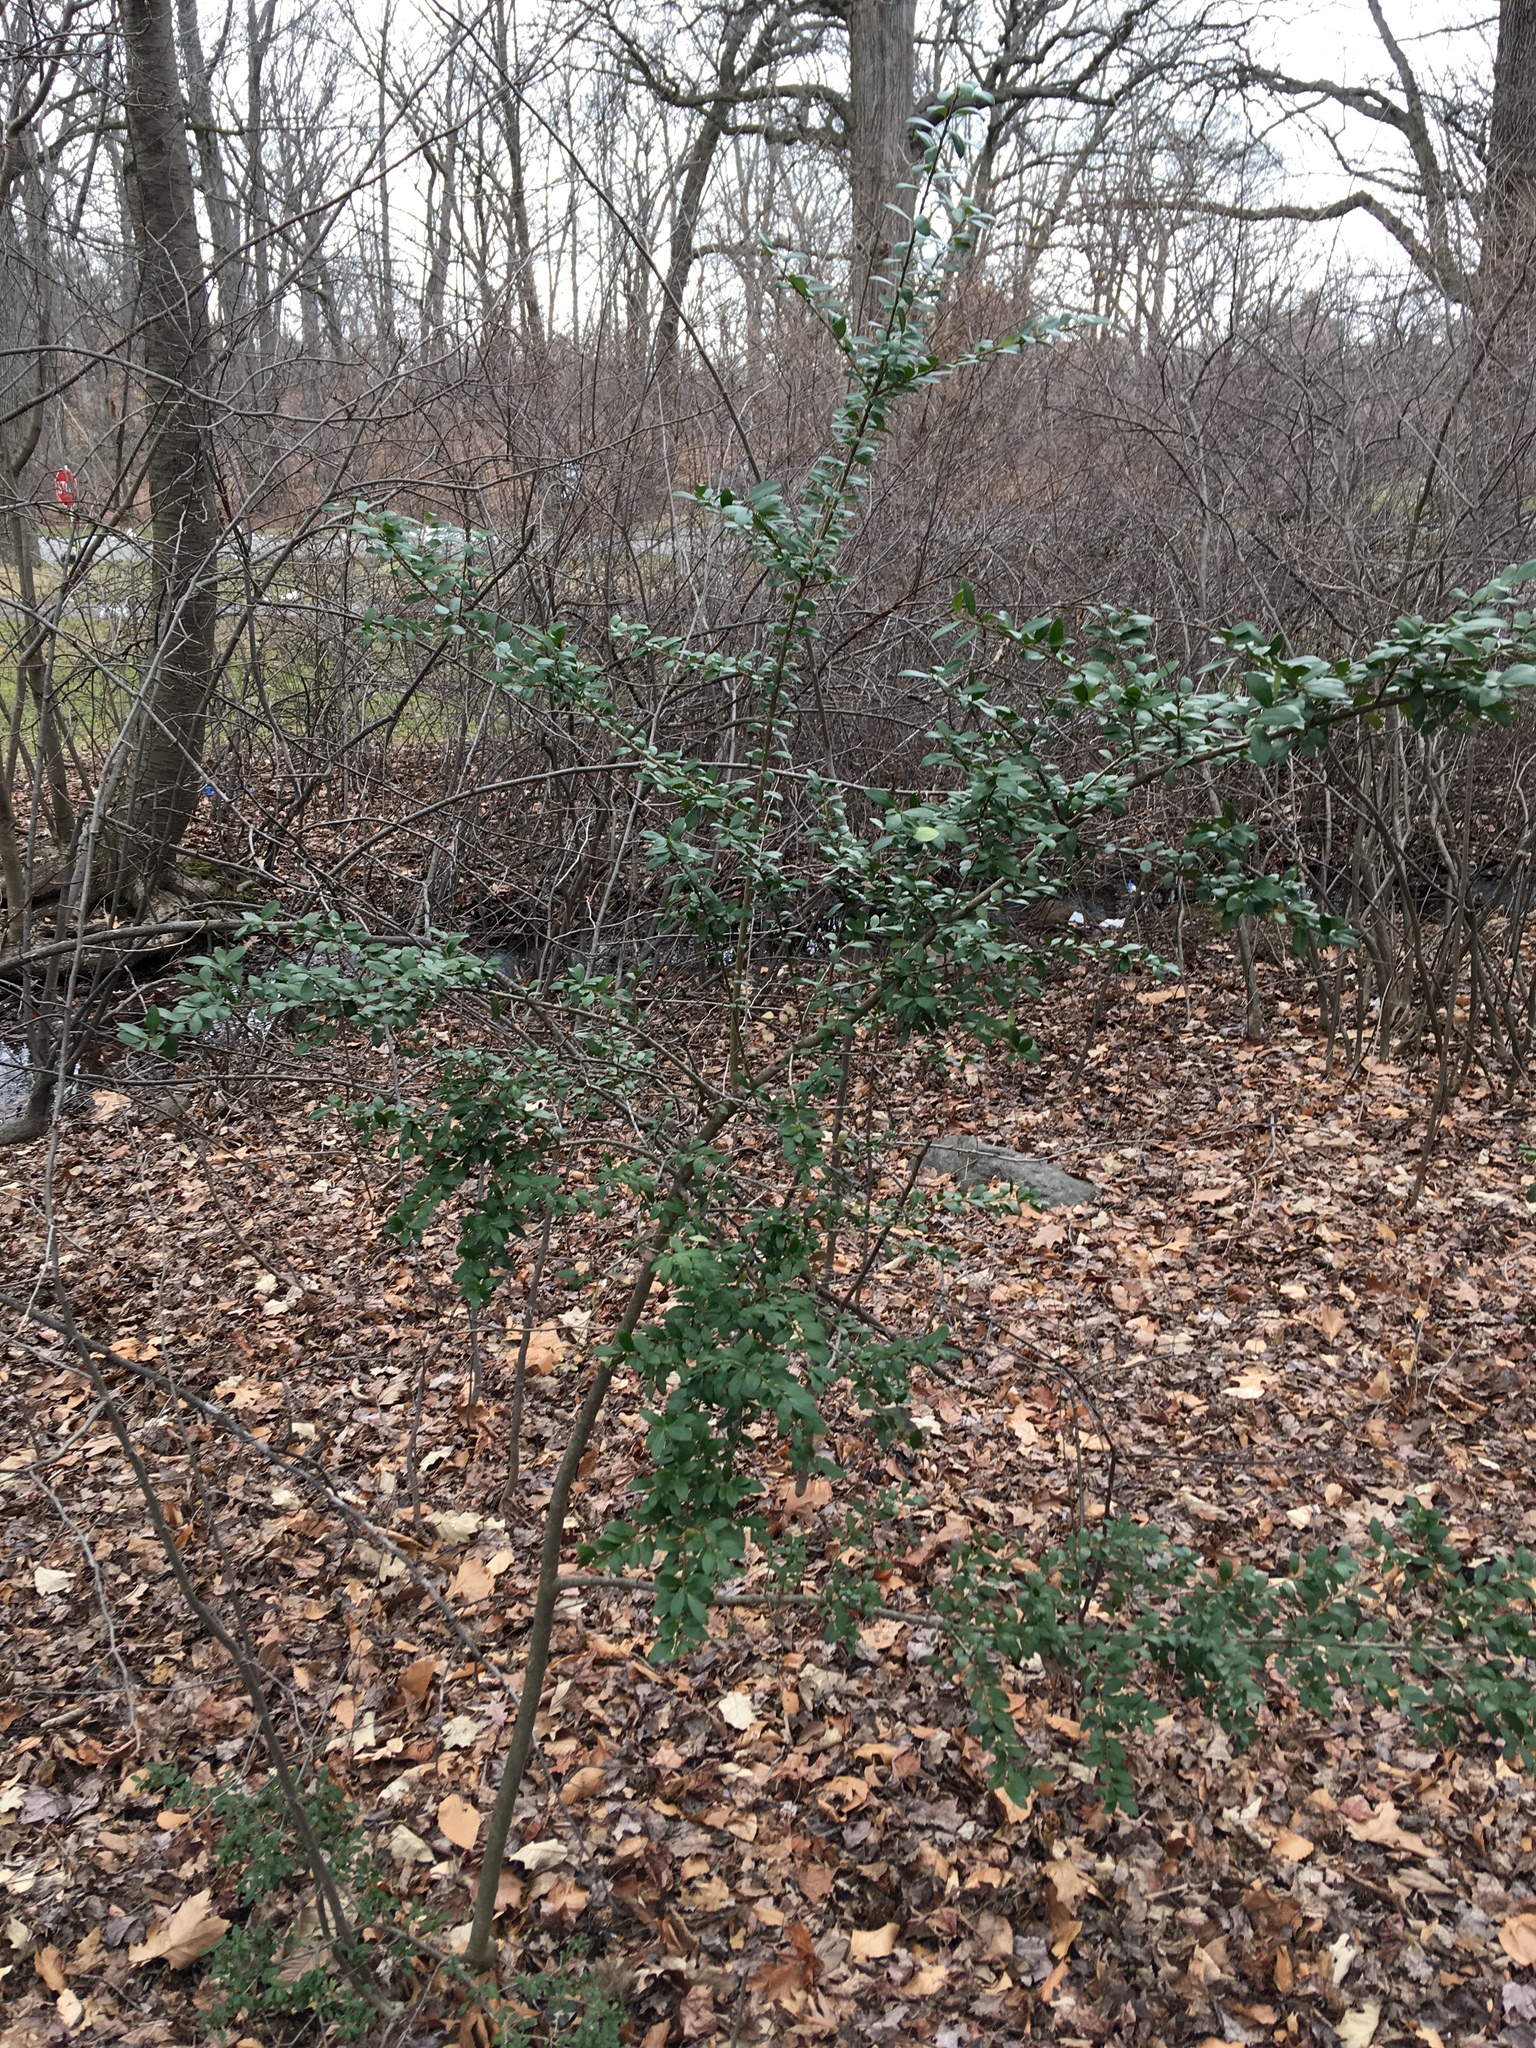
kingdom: Plantae
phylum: Tracheophyta
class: Magnoliopsida
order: Aquifoliales
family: Aquifoliaceae
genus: Ilex
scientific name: Ilex crenata
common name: Japanese holly
